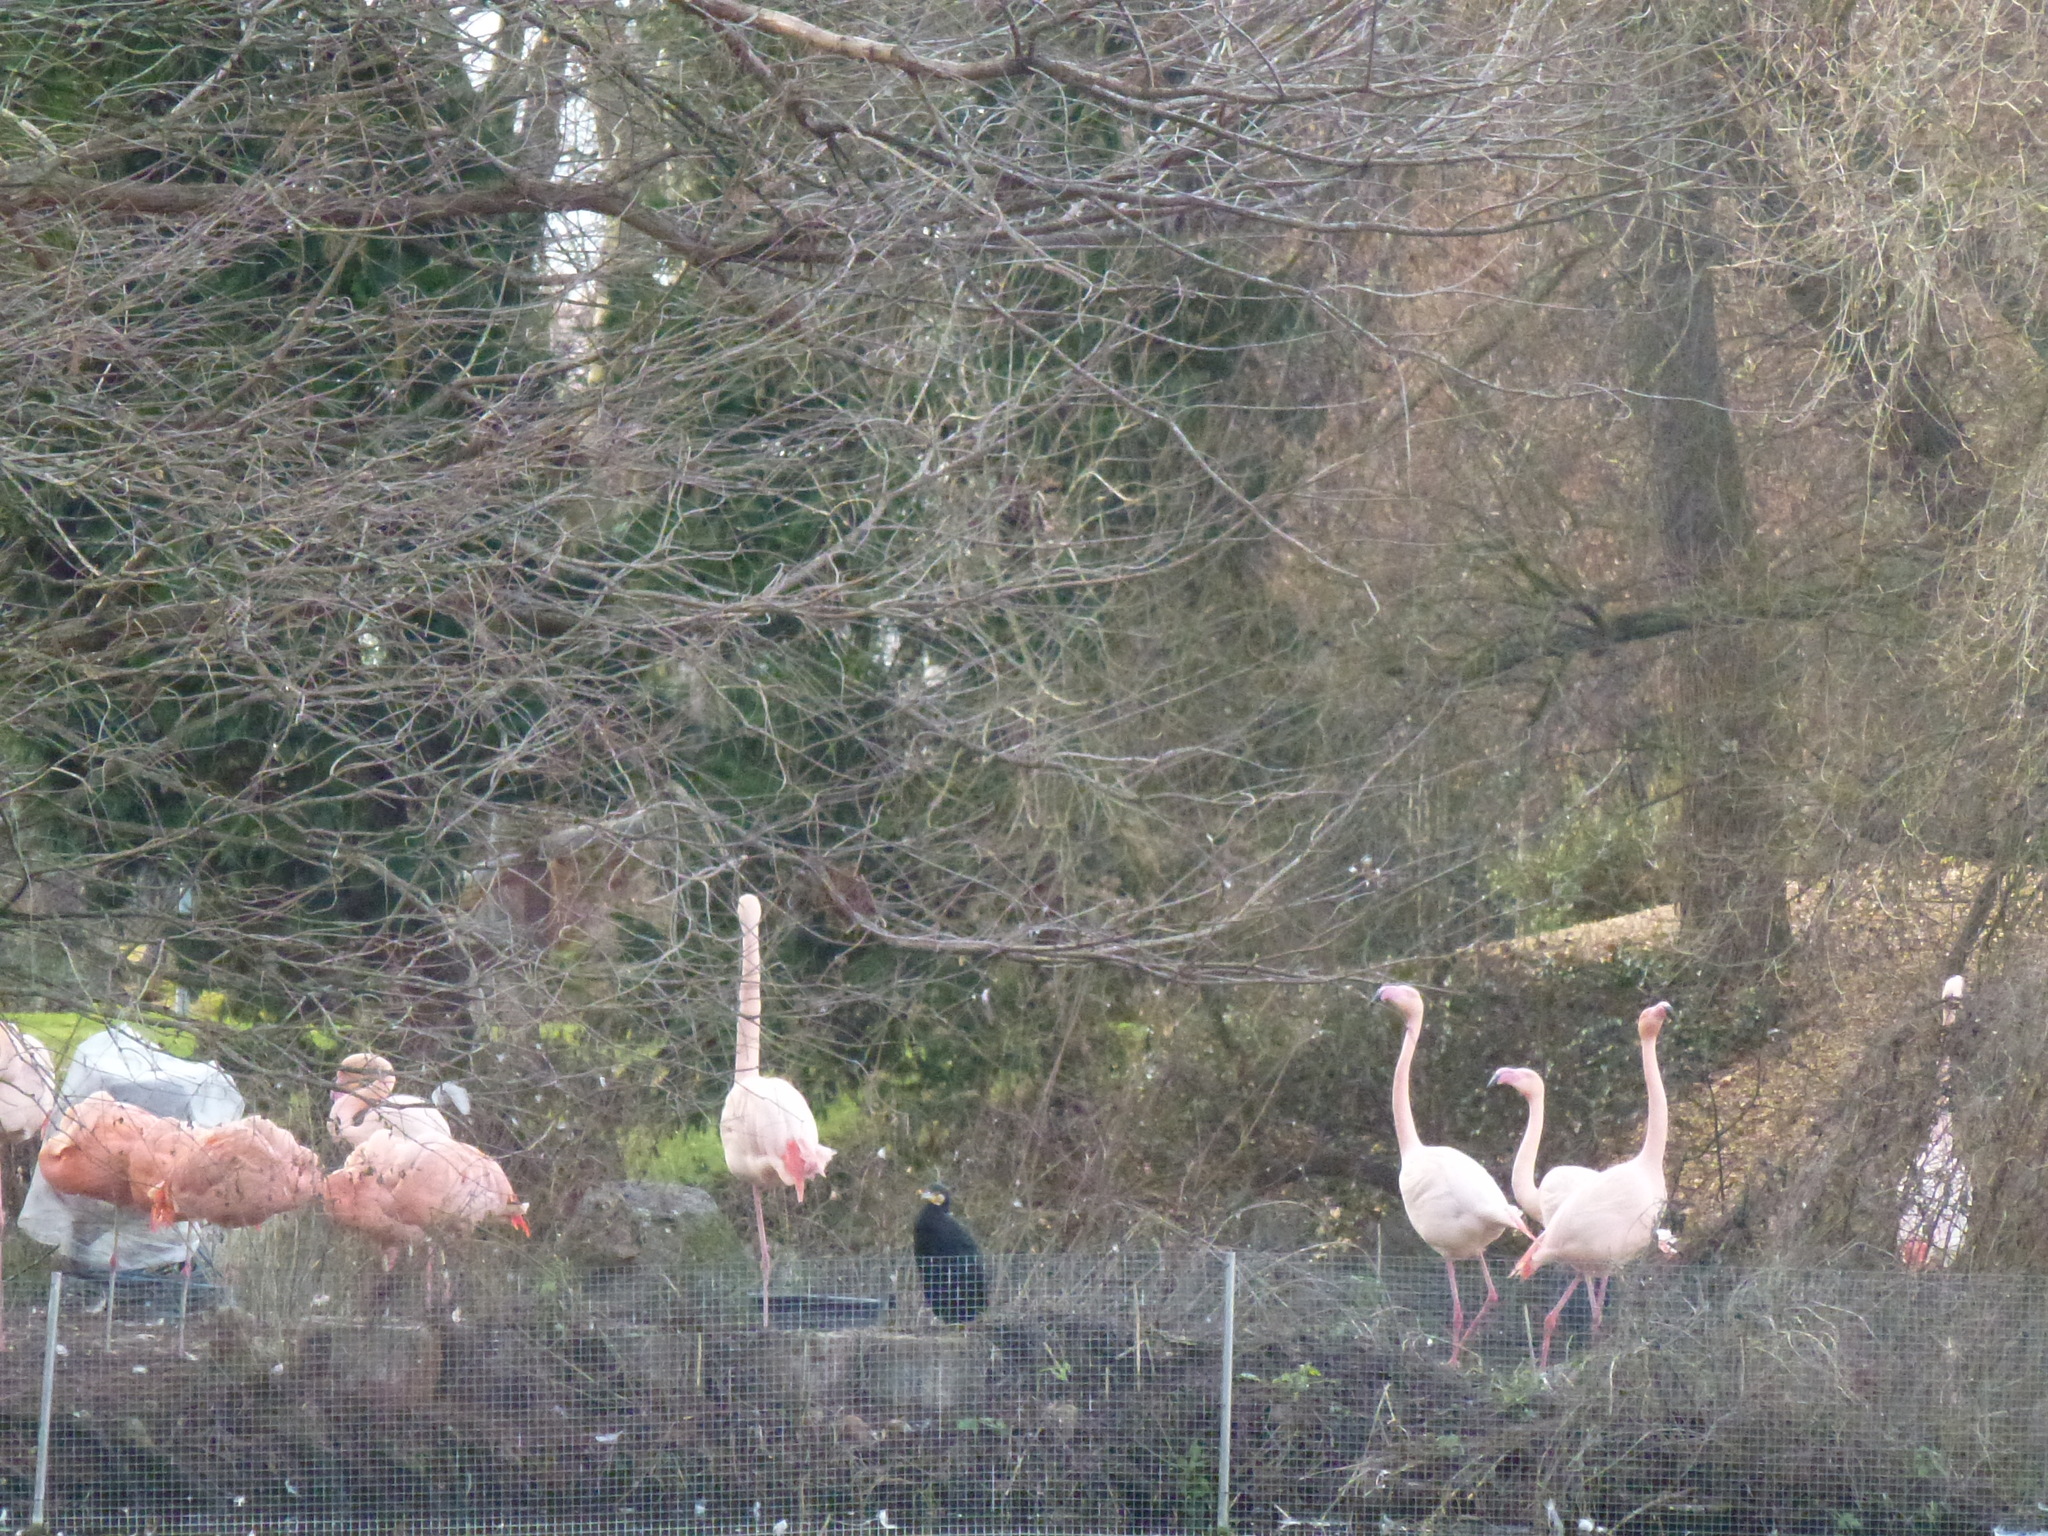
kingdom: Animalia
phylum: Chordata
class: Aves
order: Suliformes
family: Phalacrocoracidae
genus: Phalacrocorax
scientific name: Phalacrocorax carbo
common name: Great cormorant
